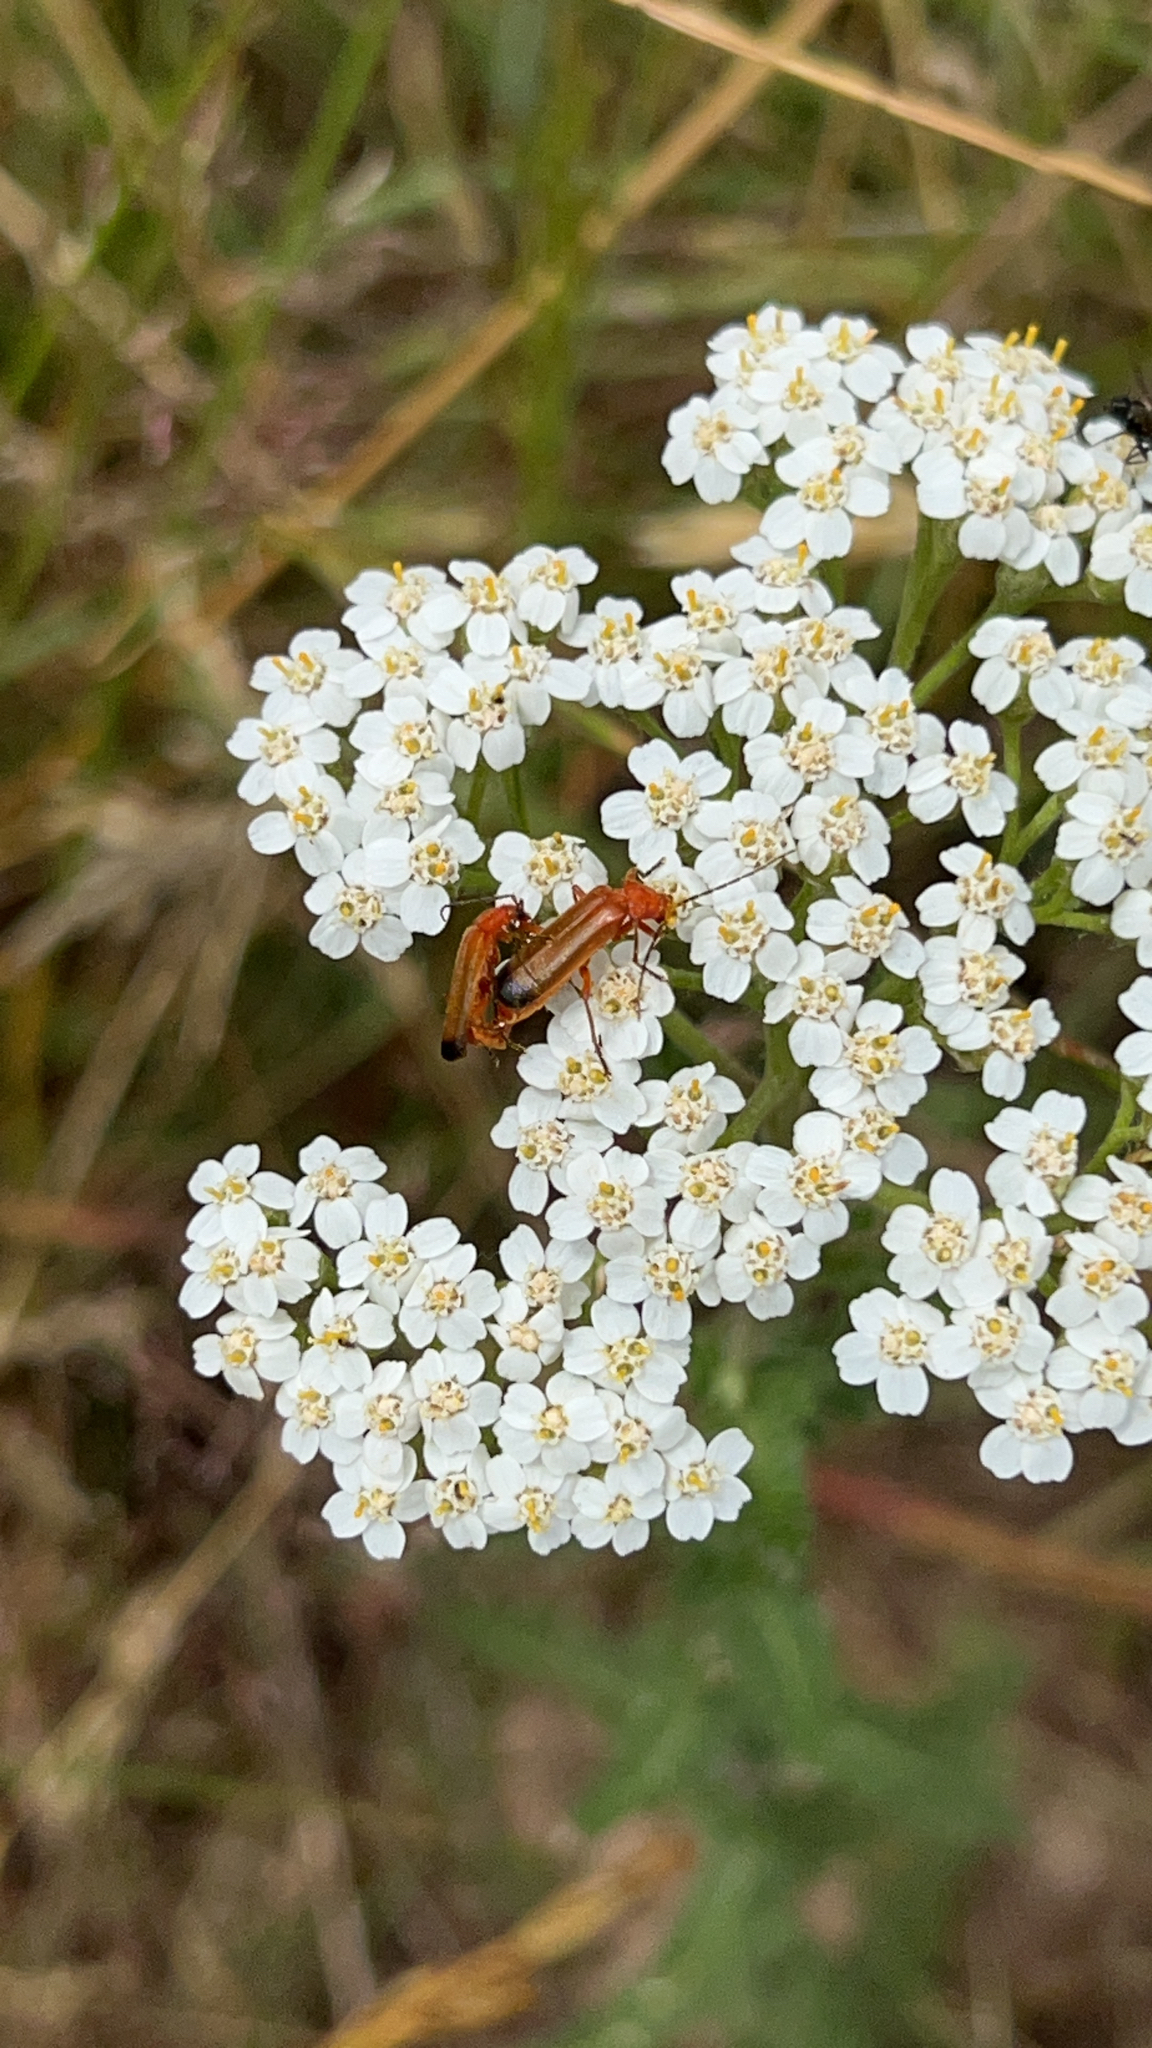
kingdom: Animalia
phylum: Arthropoda
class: Insecta
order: Coleoptera
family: Cantharidae
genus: Rhagonycha
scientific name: Rhagonycha fulva
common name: Common red soldier beetle
